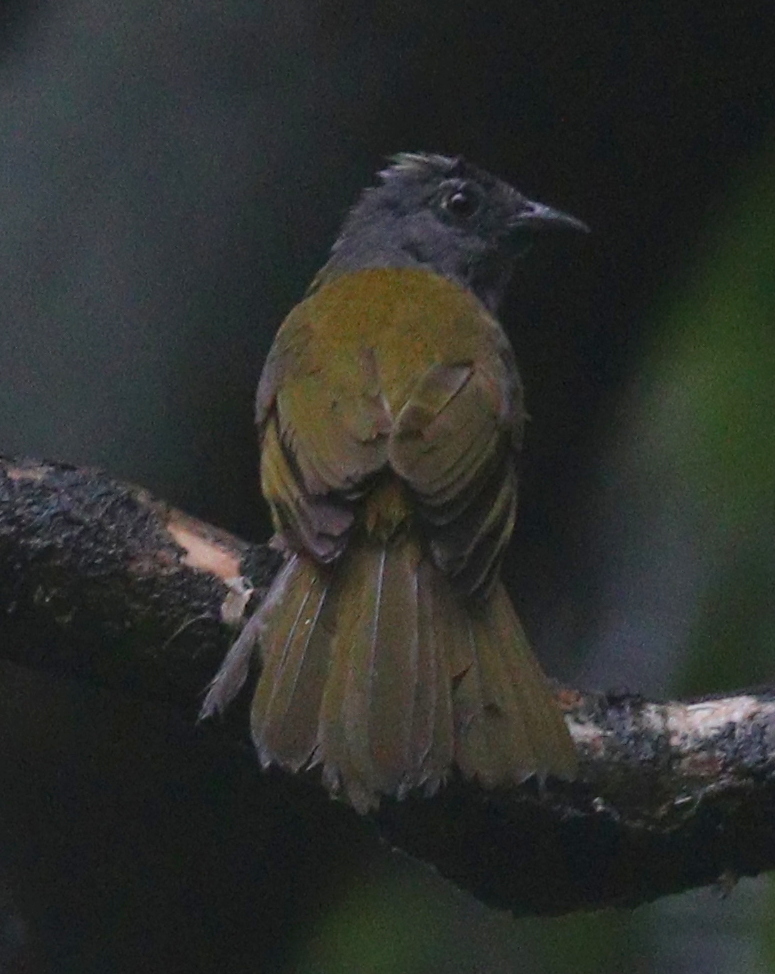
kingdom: Animalia
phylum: Chordata
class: Aves
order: Passeriformes
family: Thraupidae
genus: Eucometis
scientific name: Eucometis penicillata
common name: Grey-headed tanager
